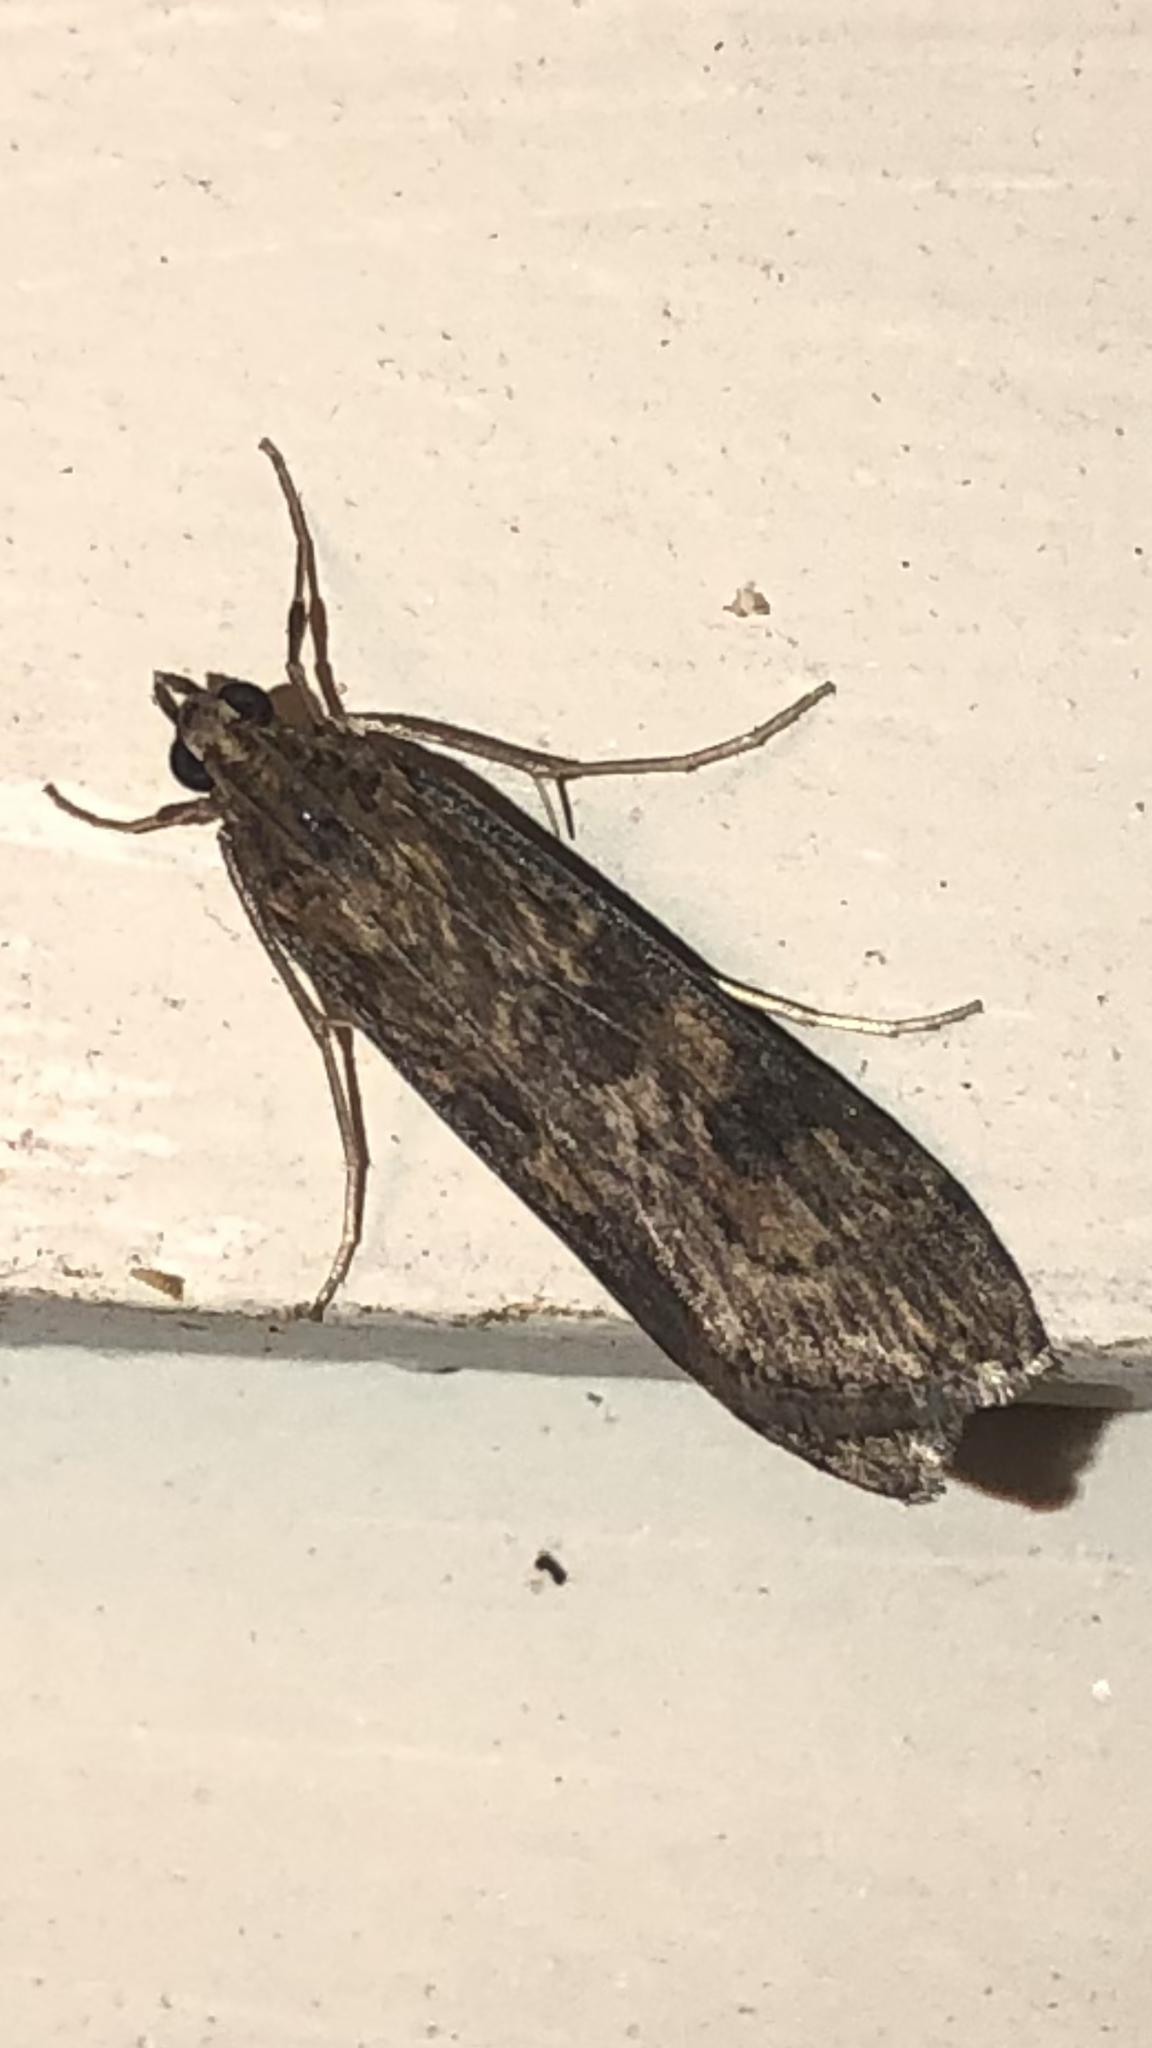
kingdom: Animalia
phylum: Arthropoda
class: Insecta
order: Lepidoptera
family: Crambidae
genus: Nomophila
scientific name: Nomophila nearctica
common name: American rush veneer
